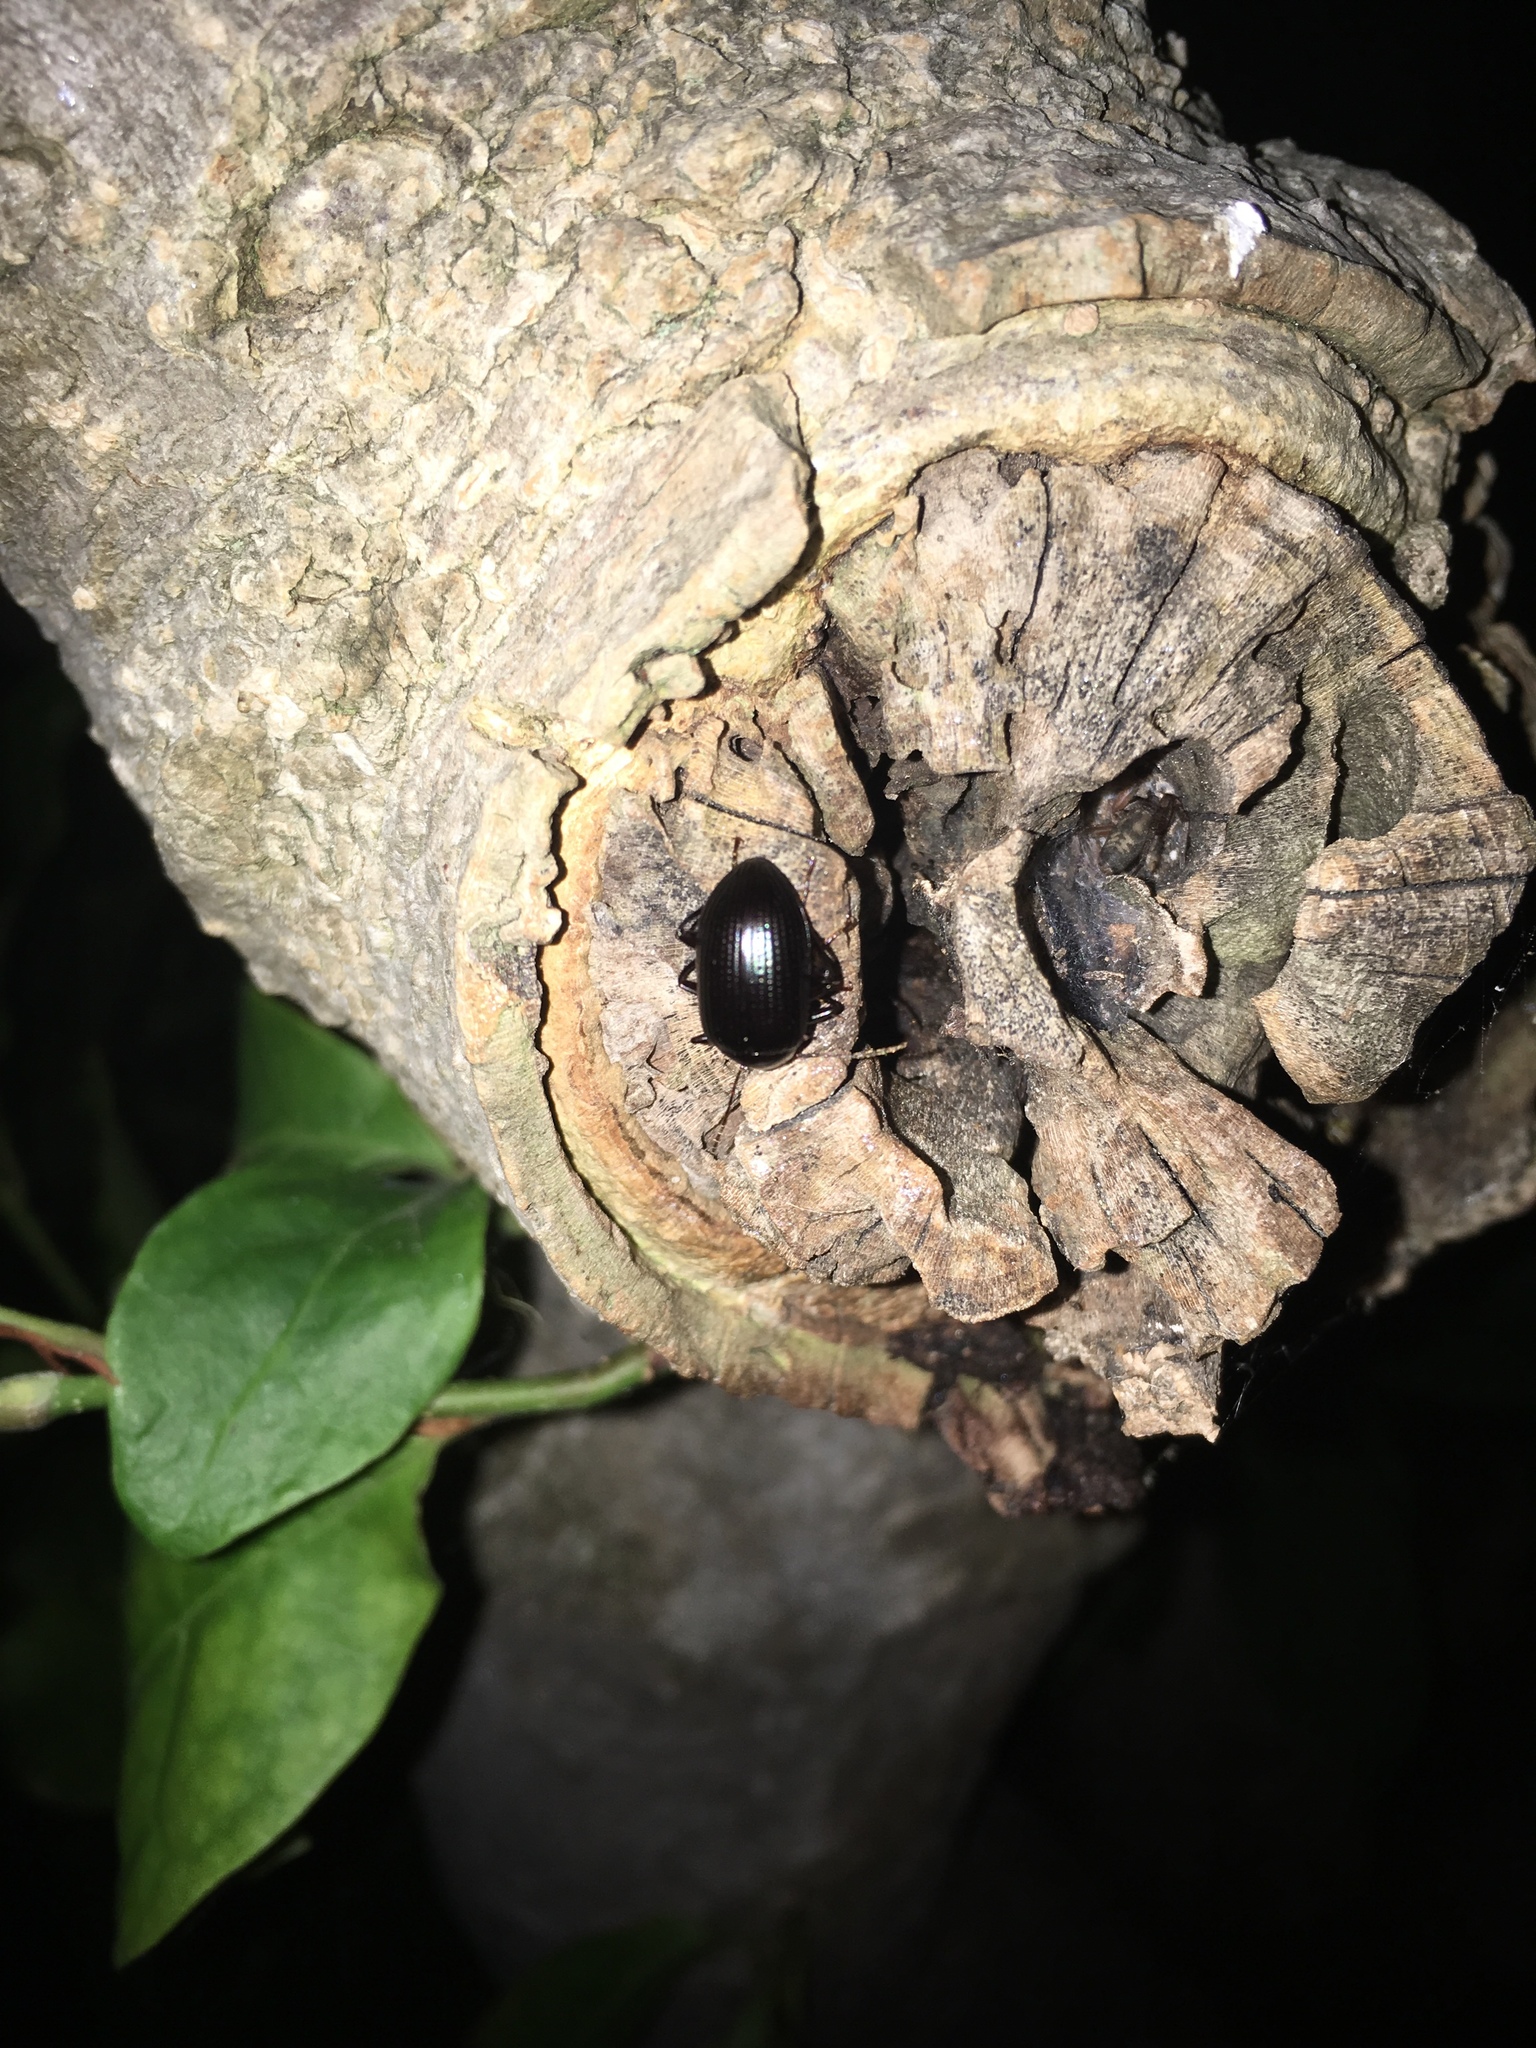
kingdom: Animalia
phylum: Arthropoda
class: Insecta
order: Coleoptera
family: Tenebrionidae
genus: Amarygmus
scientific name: Amarygmus
